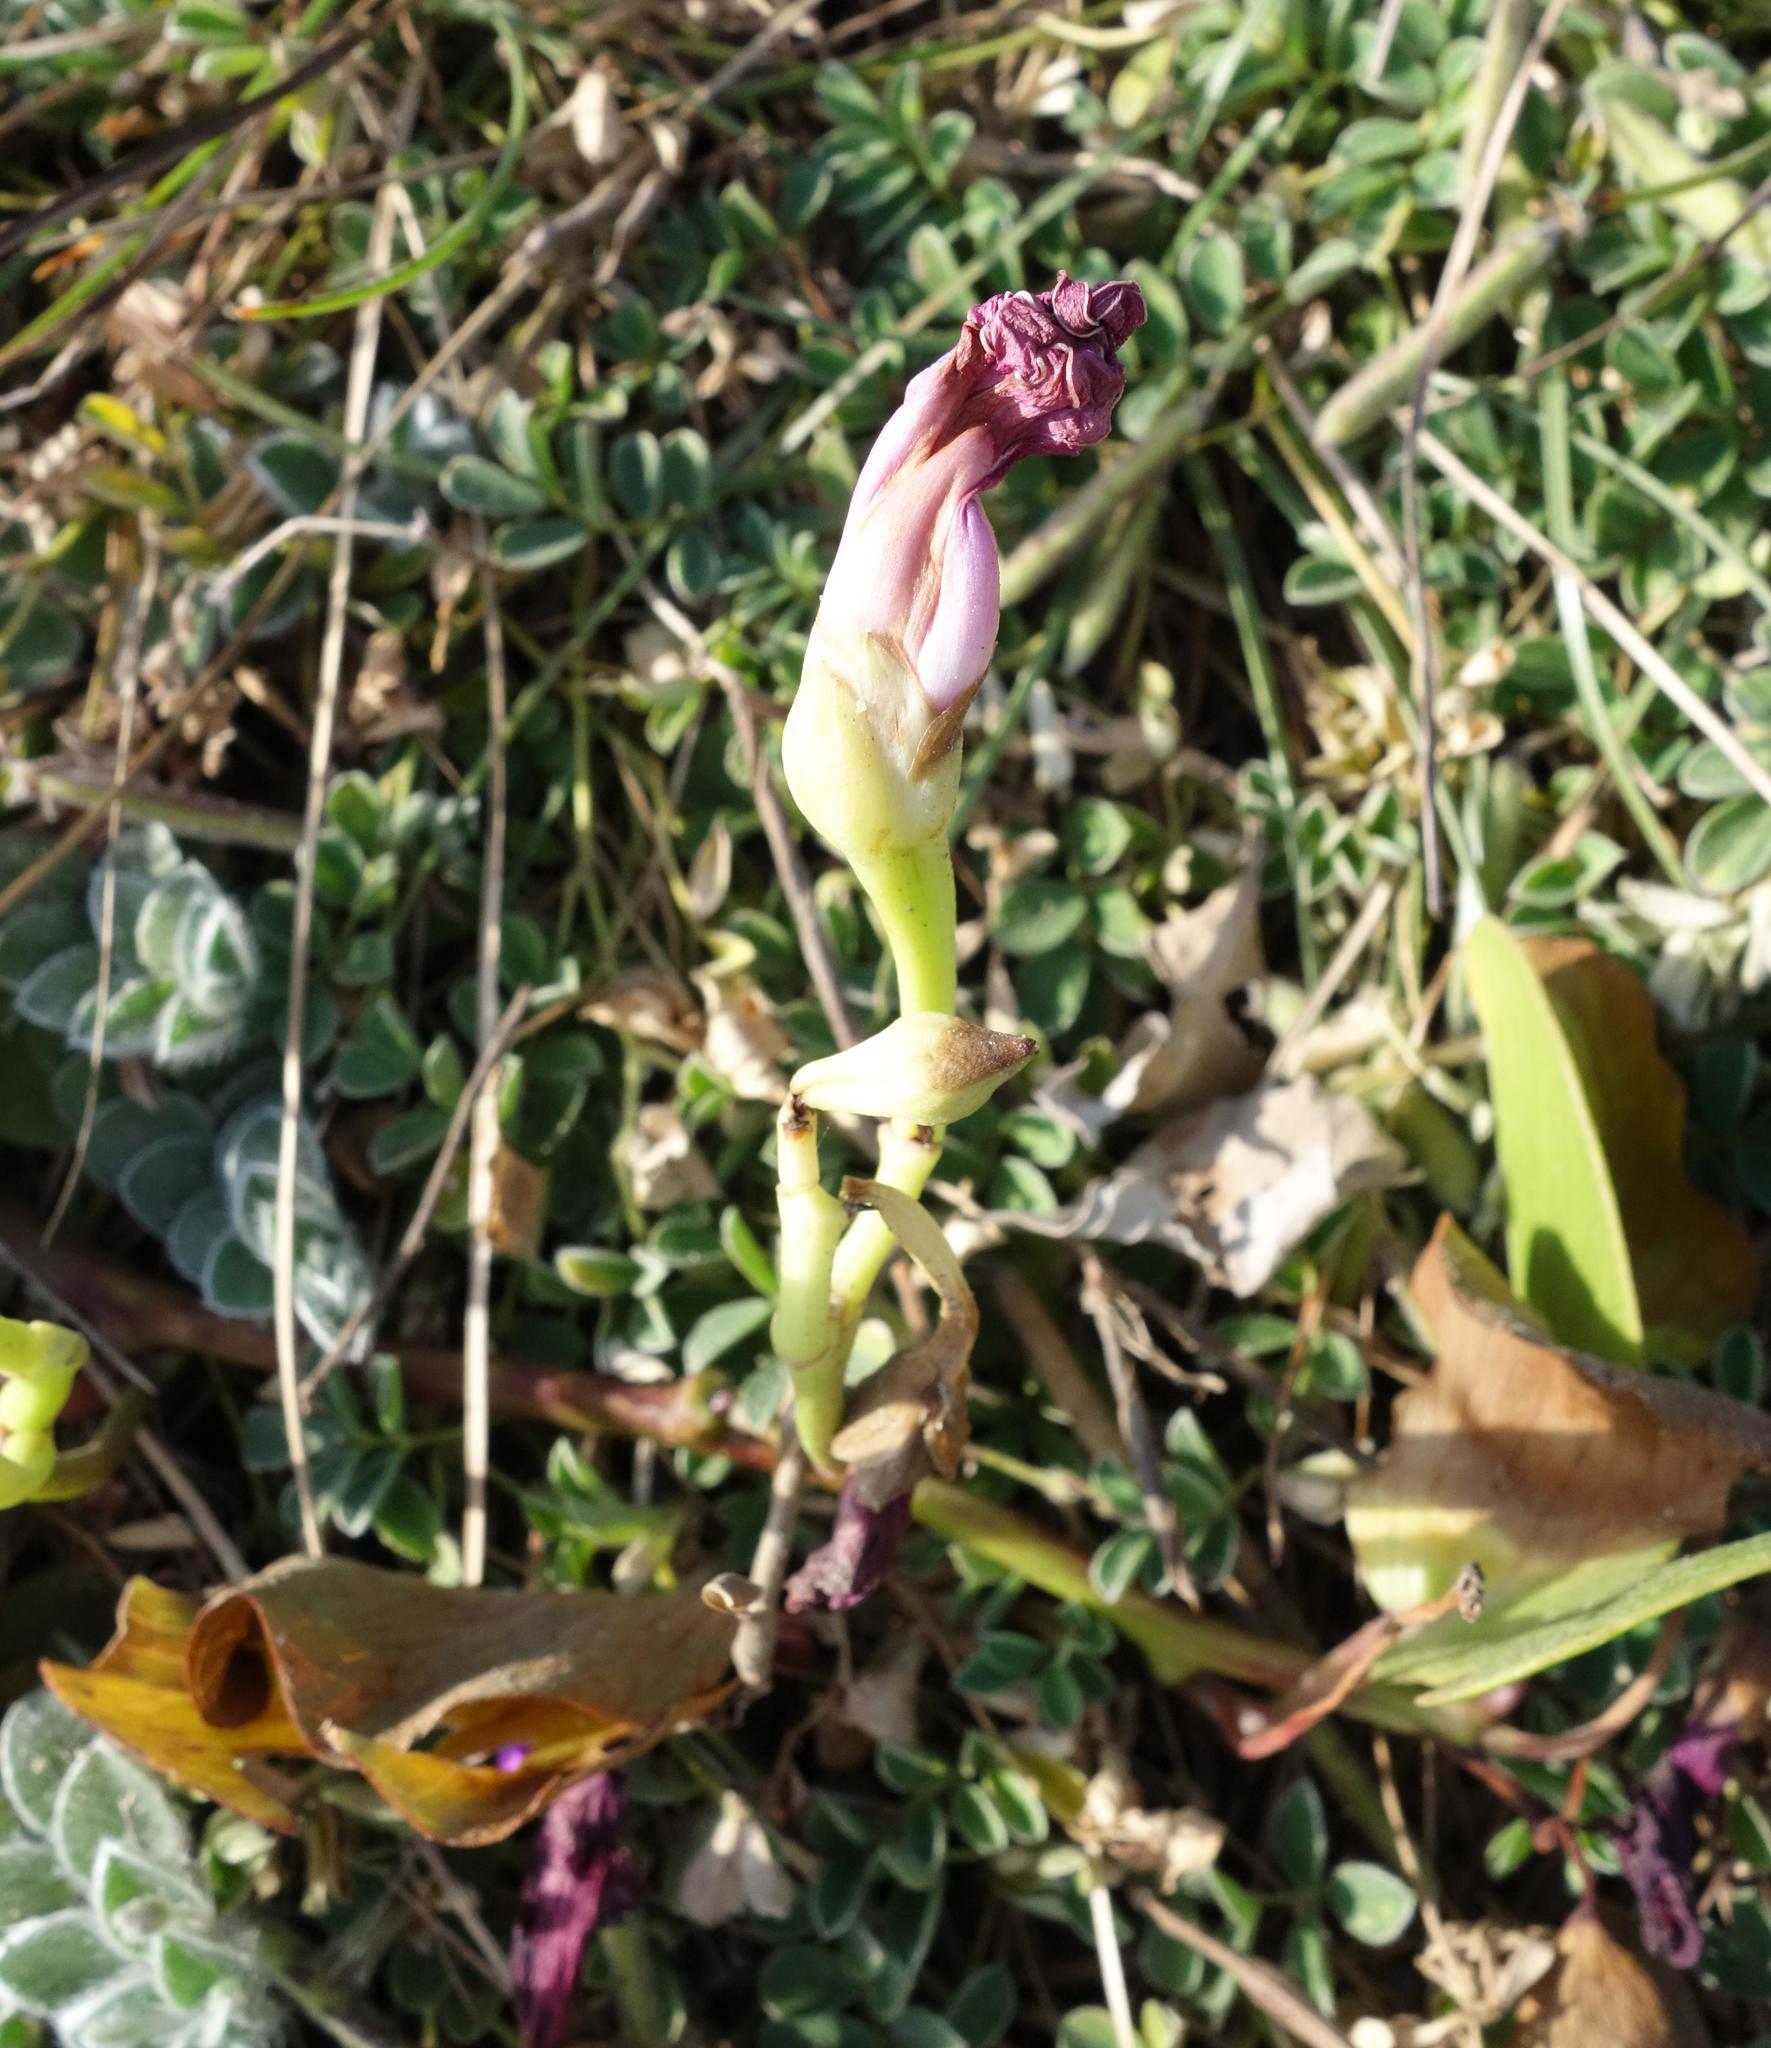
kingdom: Plantae
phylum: Tracheophyta
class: Magnoliopsida
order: Solanales
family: Convolvulaceae
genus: Ipomoea
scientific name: Ipomoea pes-caprae
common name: Beach morning glory
